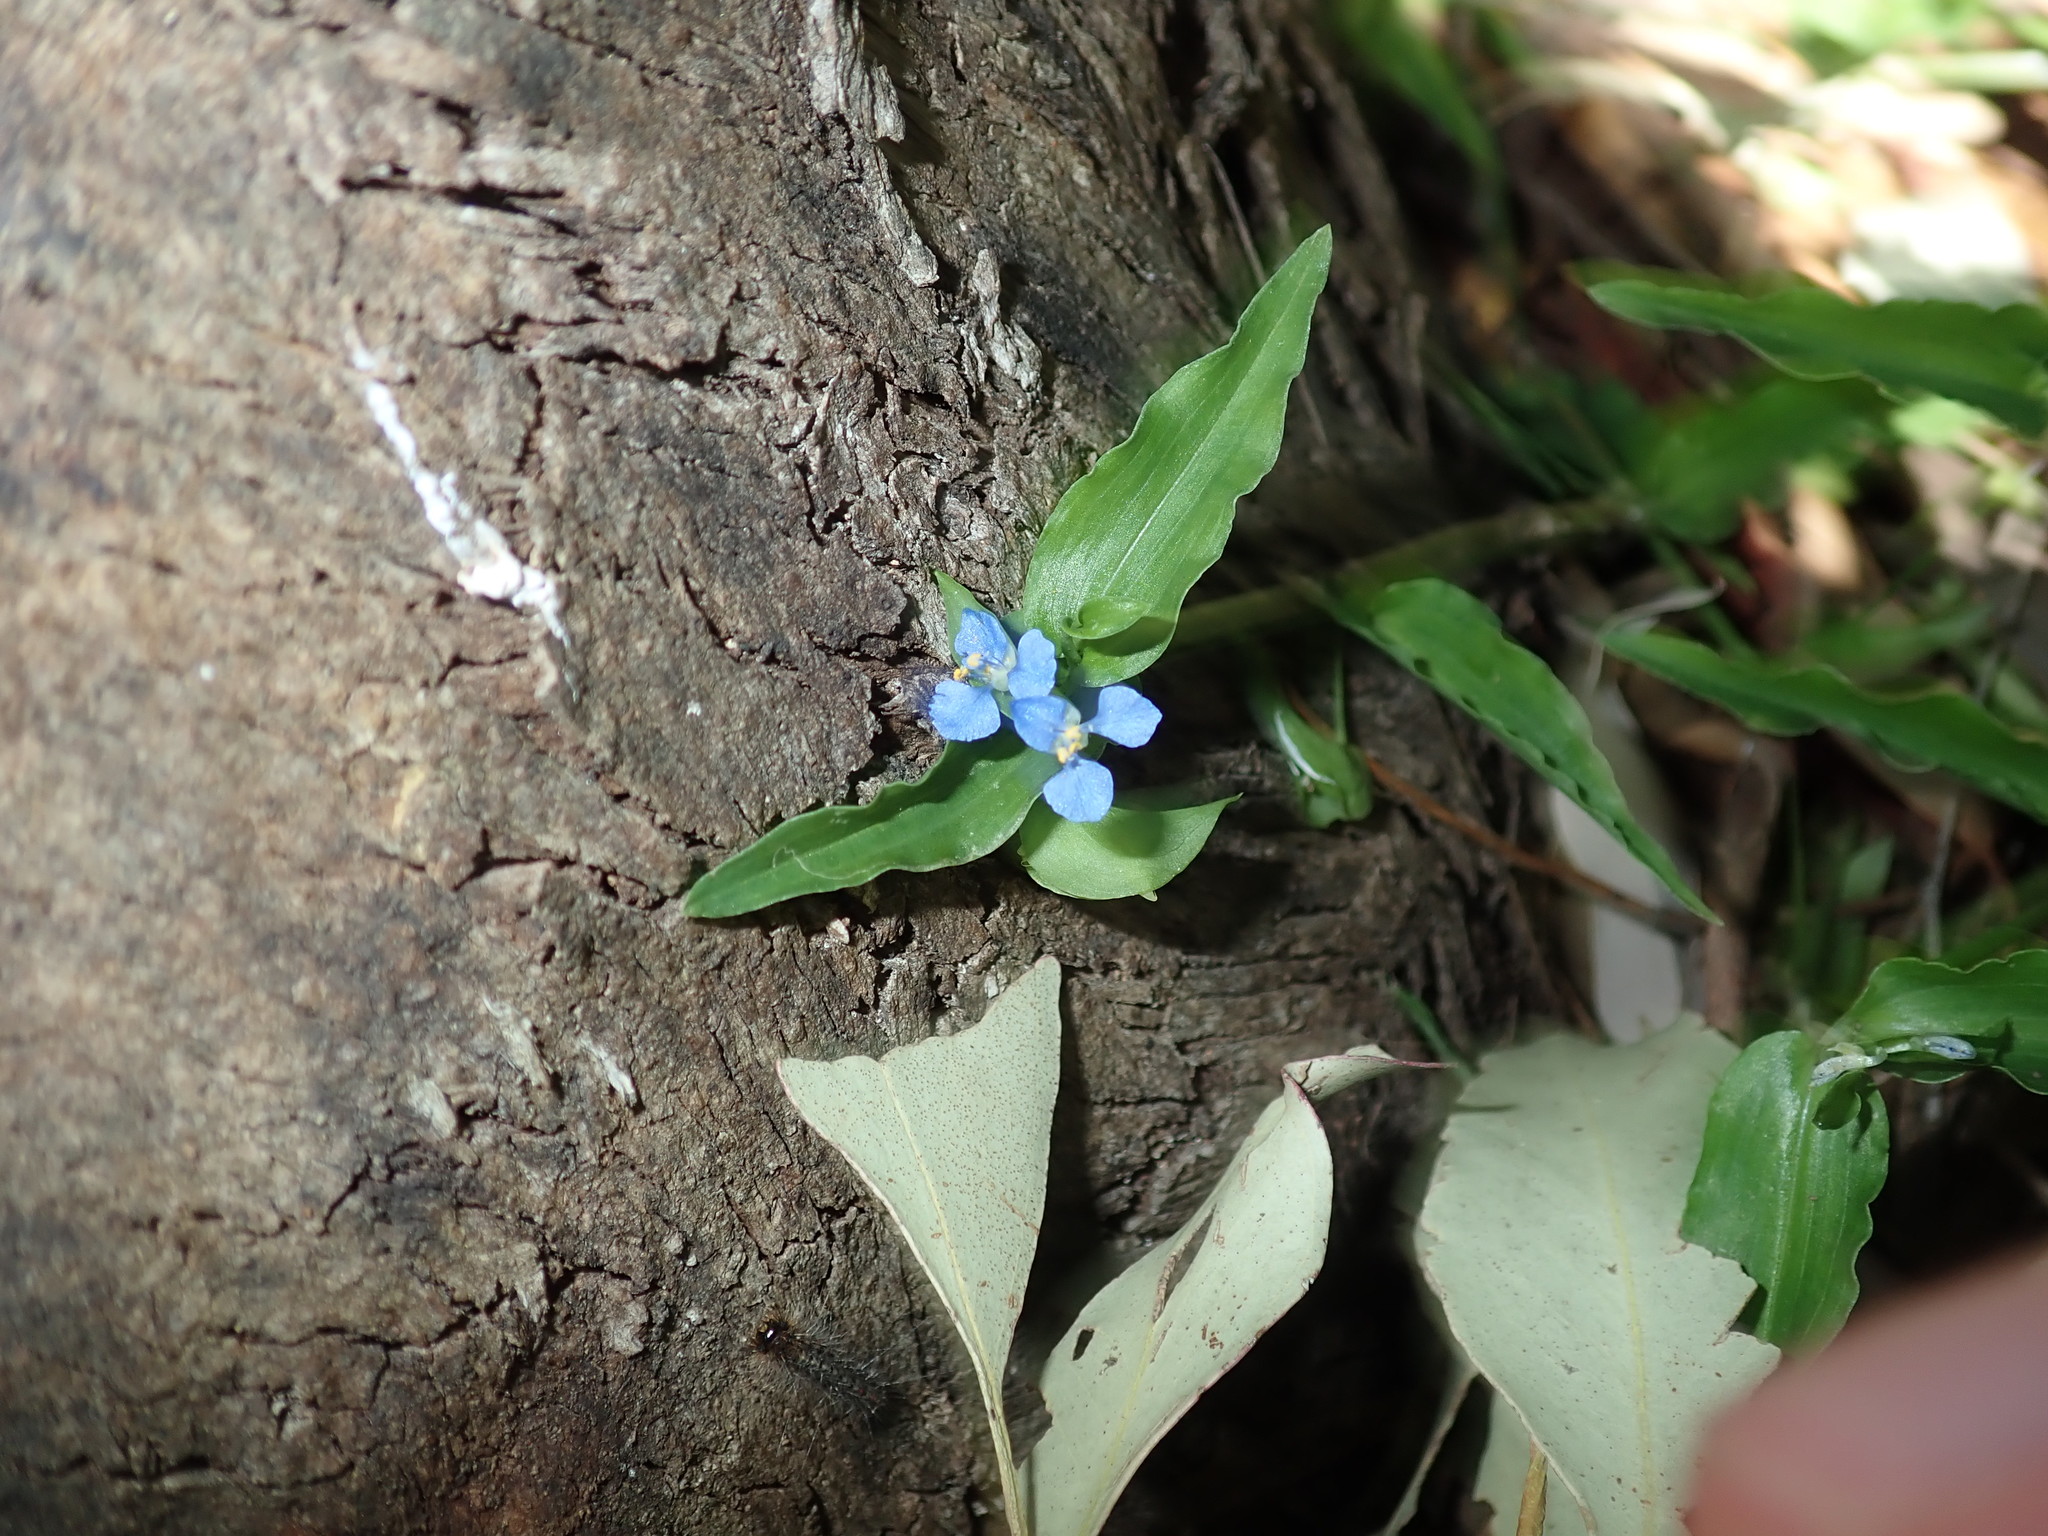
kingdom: Plantae
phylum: Tracheophyta
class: Liliopsida
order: Commelinales
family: Commelinaceae
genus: Commelina
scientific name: Commelina cyanea
